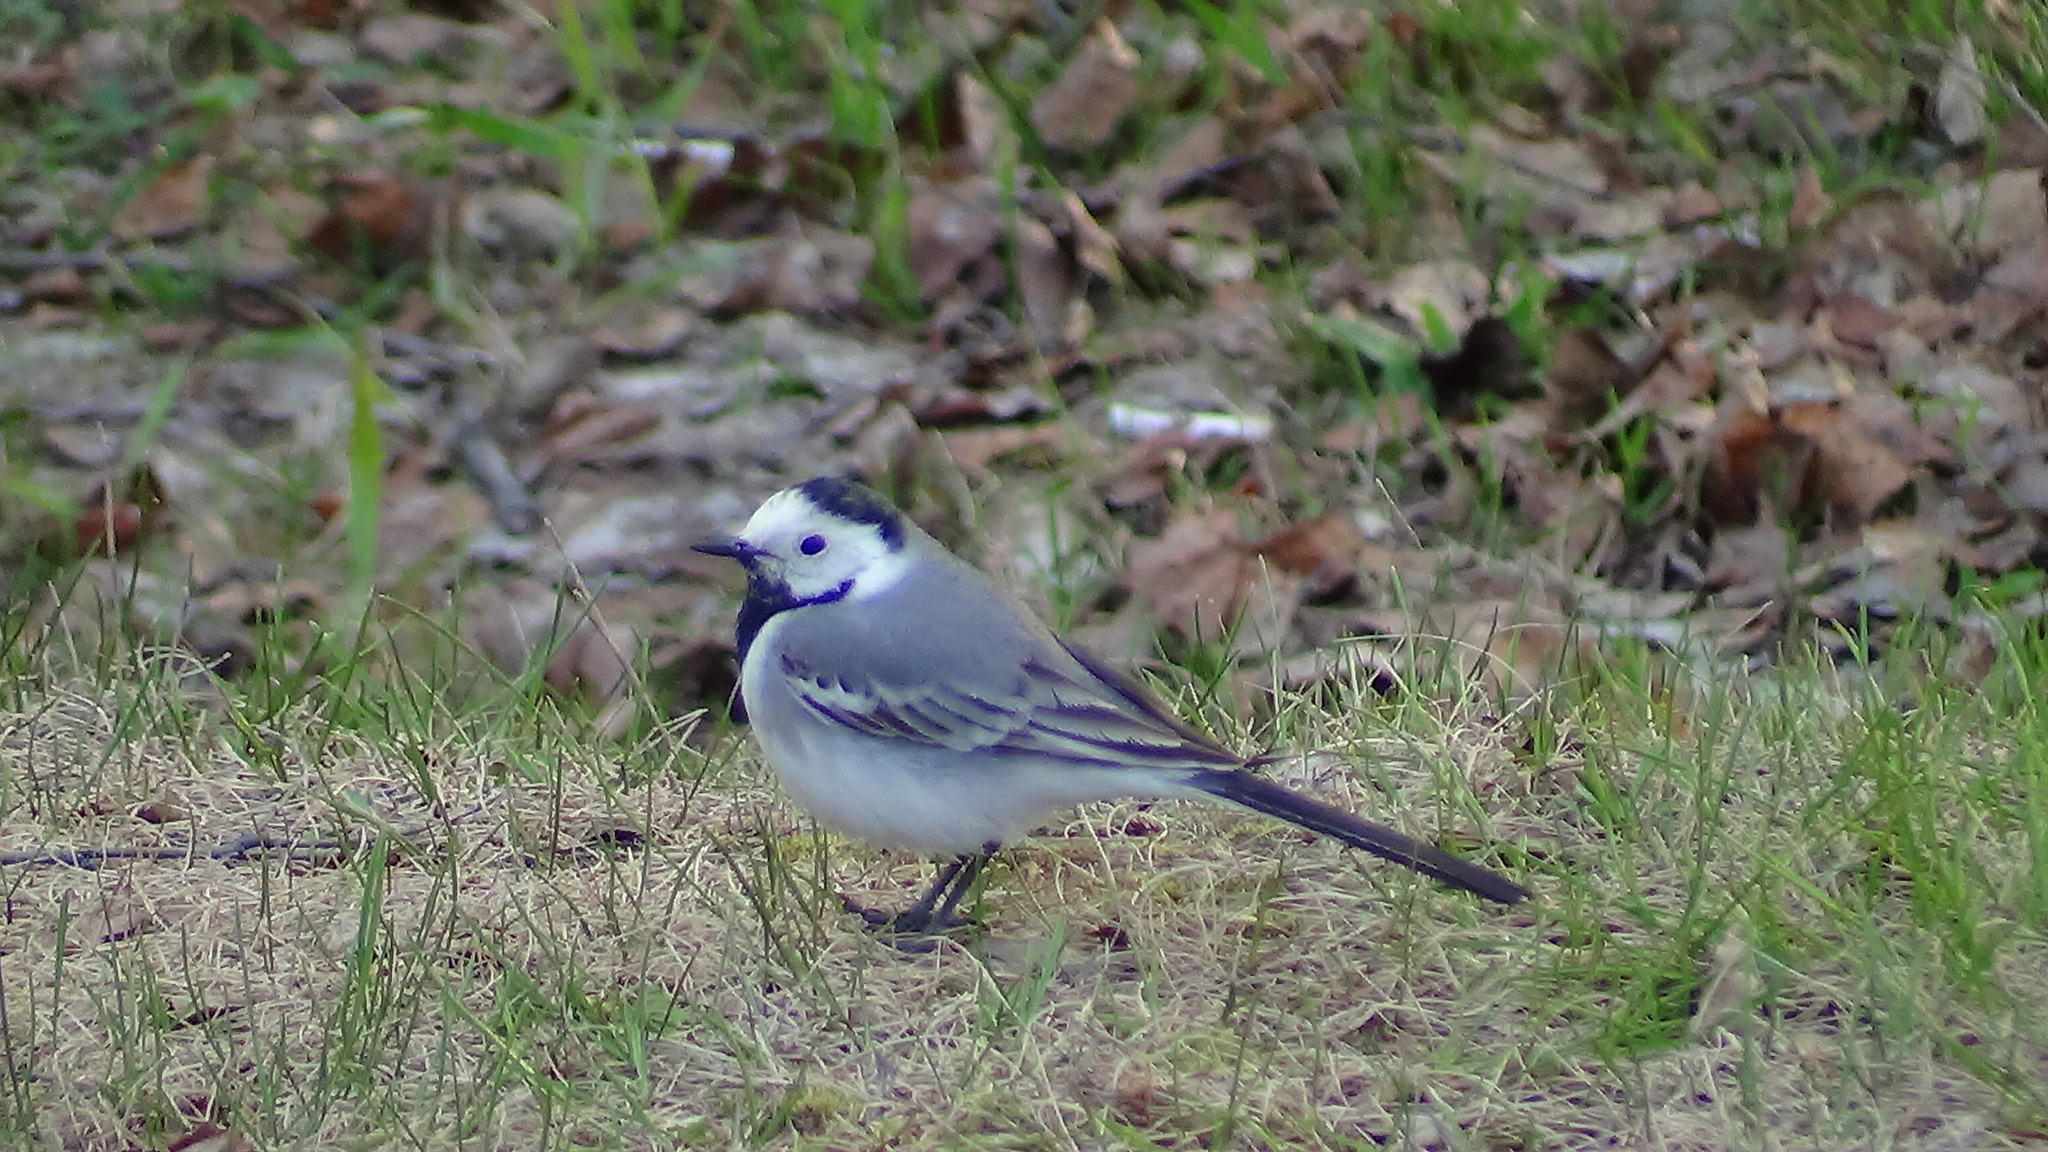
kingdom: Animalia
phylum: Chordata
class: Aves
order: Passeriformes
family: Motacillidae
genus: Motacilla
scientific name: Motacilla alba
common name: White wagtail
